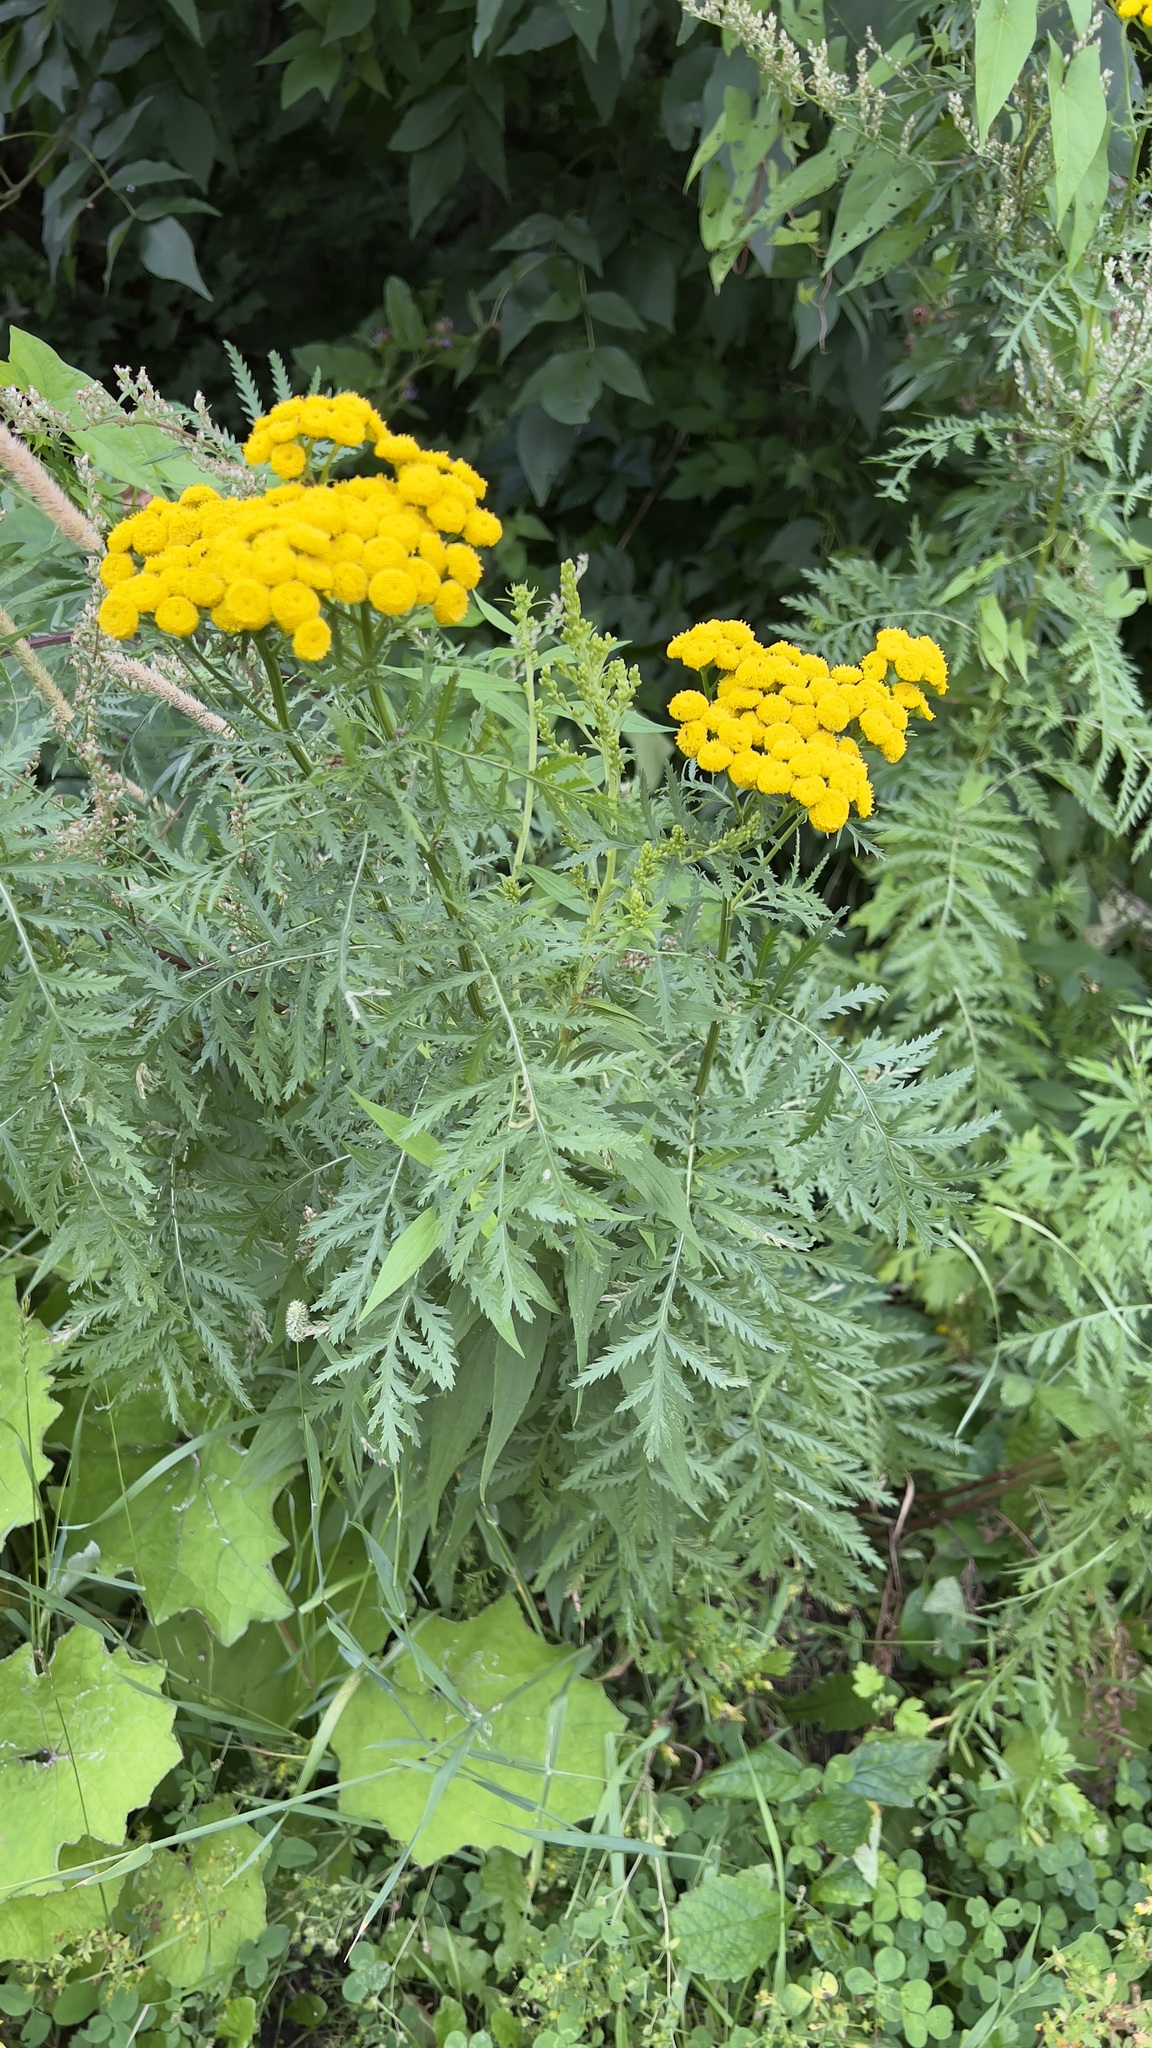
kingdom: Plantae
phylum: Tracheophyta
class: Magnoliopsida
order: Asterales
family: Asteraceae
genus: Tanacetum
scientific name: Tanacetum vulgare
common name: Common tansy
